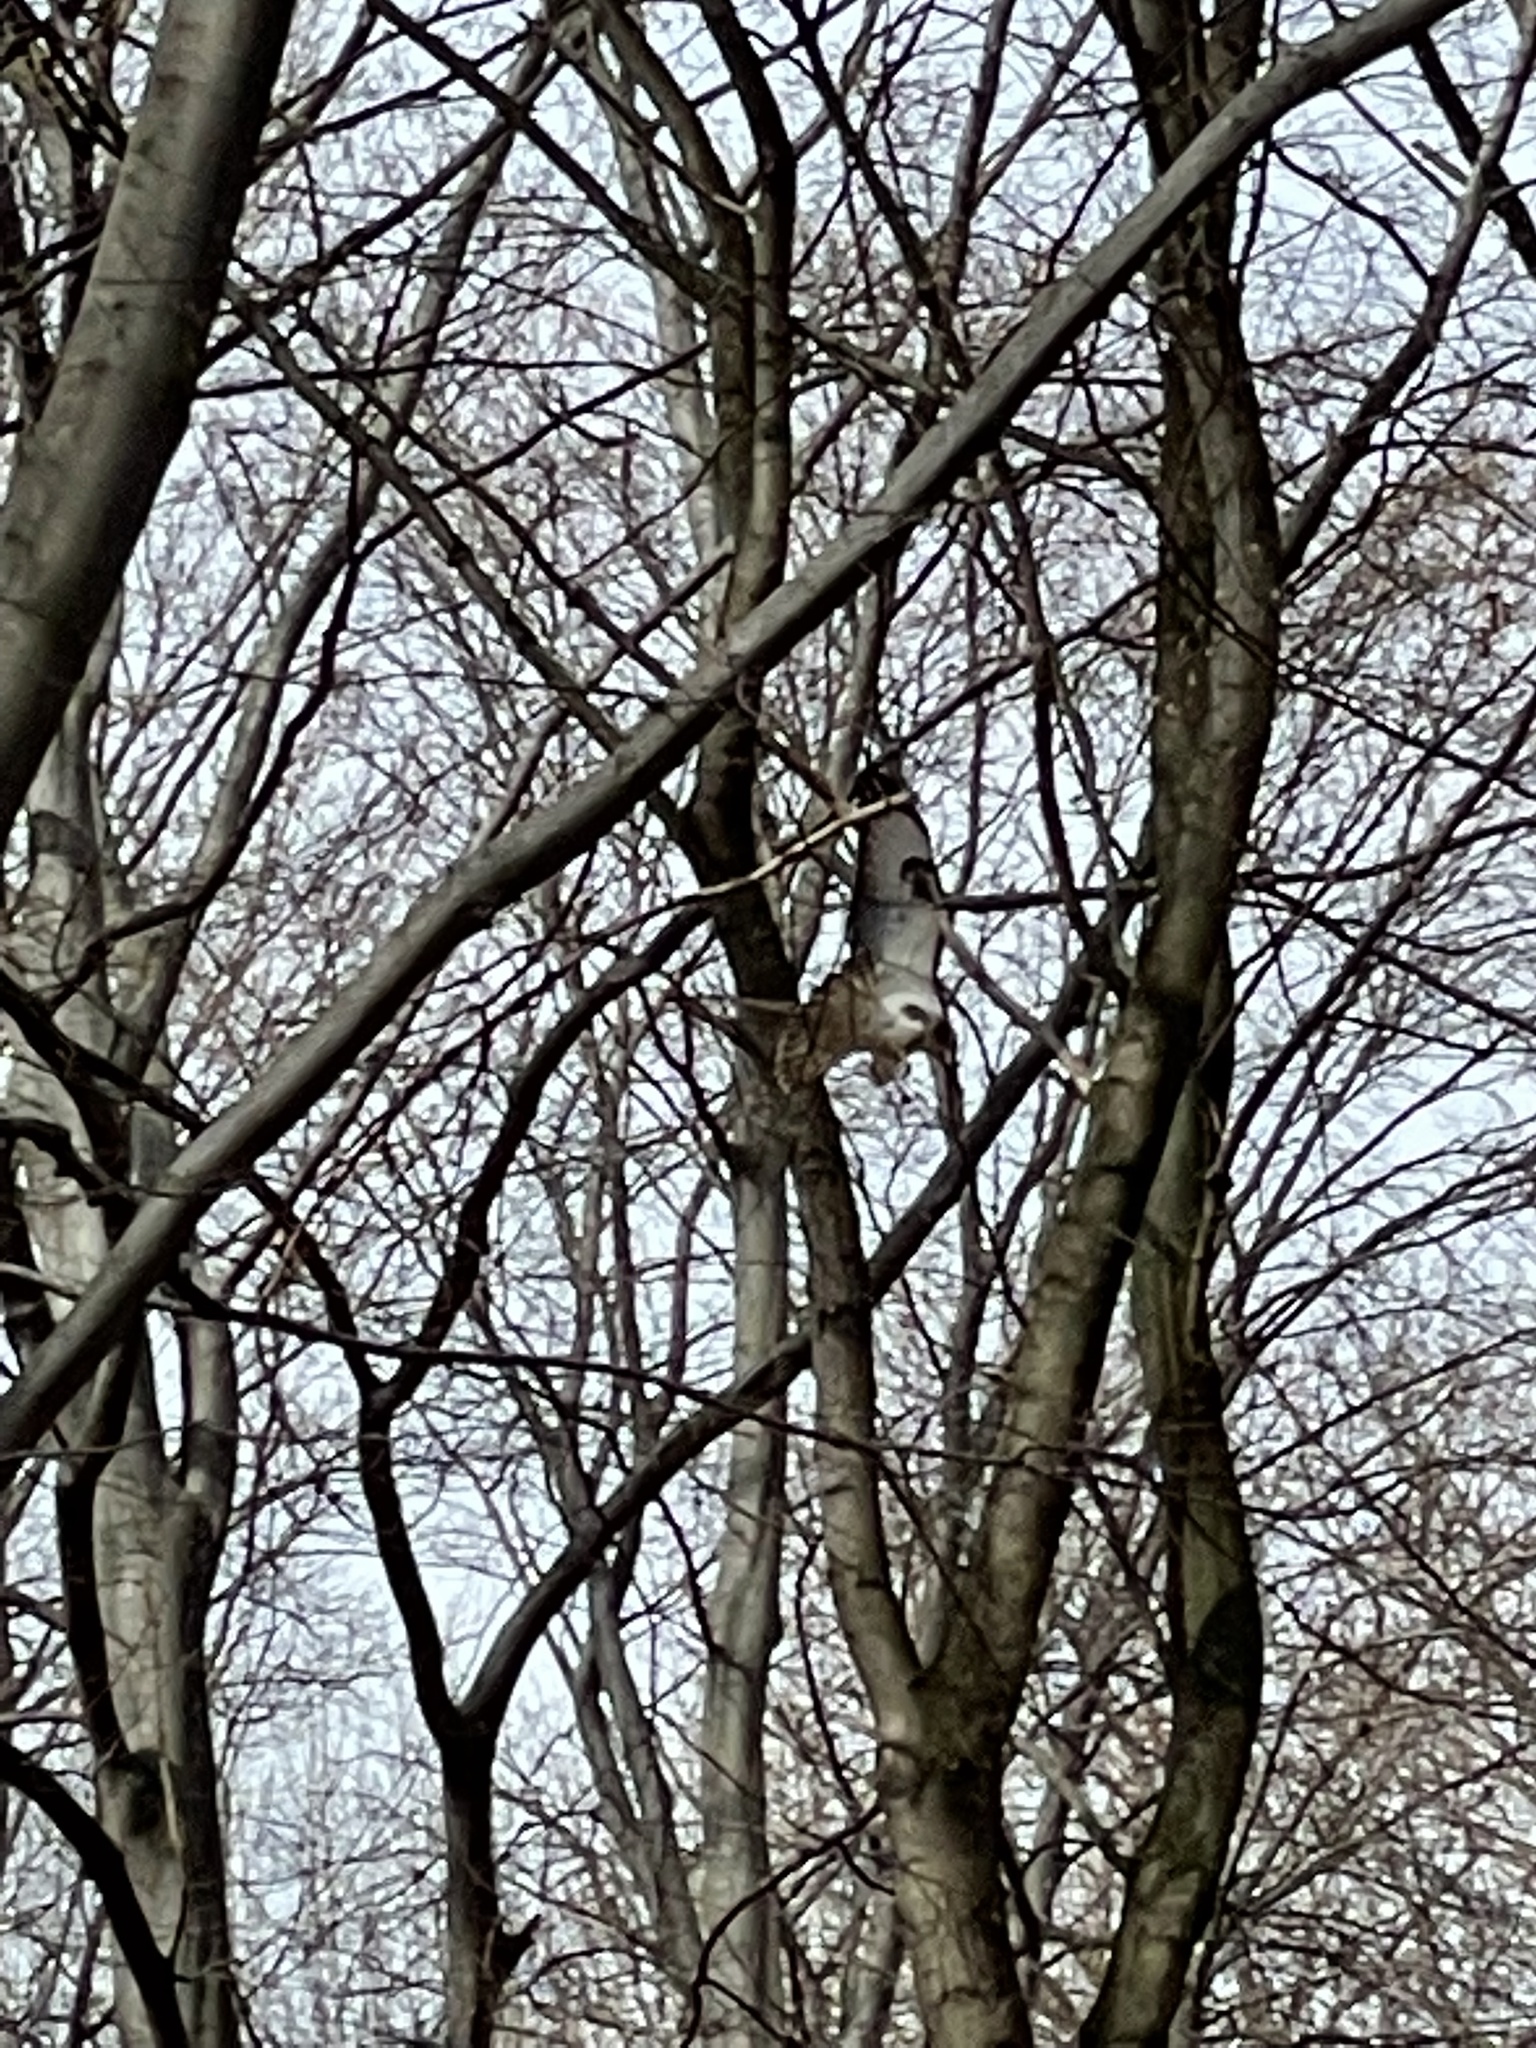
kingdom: Animalia
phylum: Chordata
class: Aves
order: Accipitriformes
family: Accipitridae
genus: Buteo
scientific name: Buteo buteo
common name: Common buzzard
